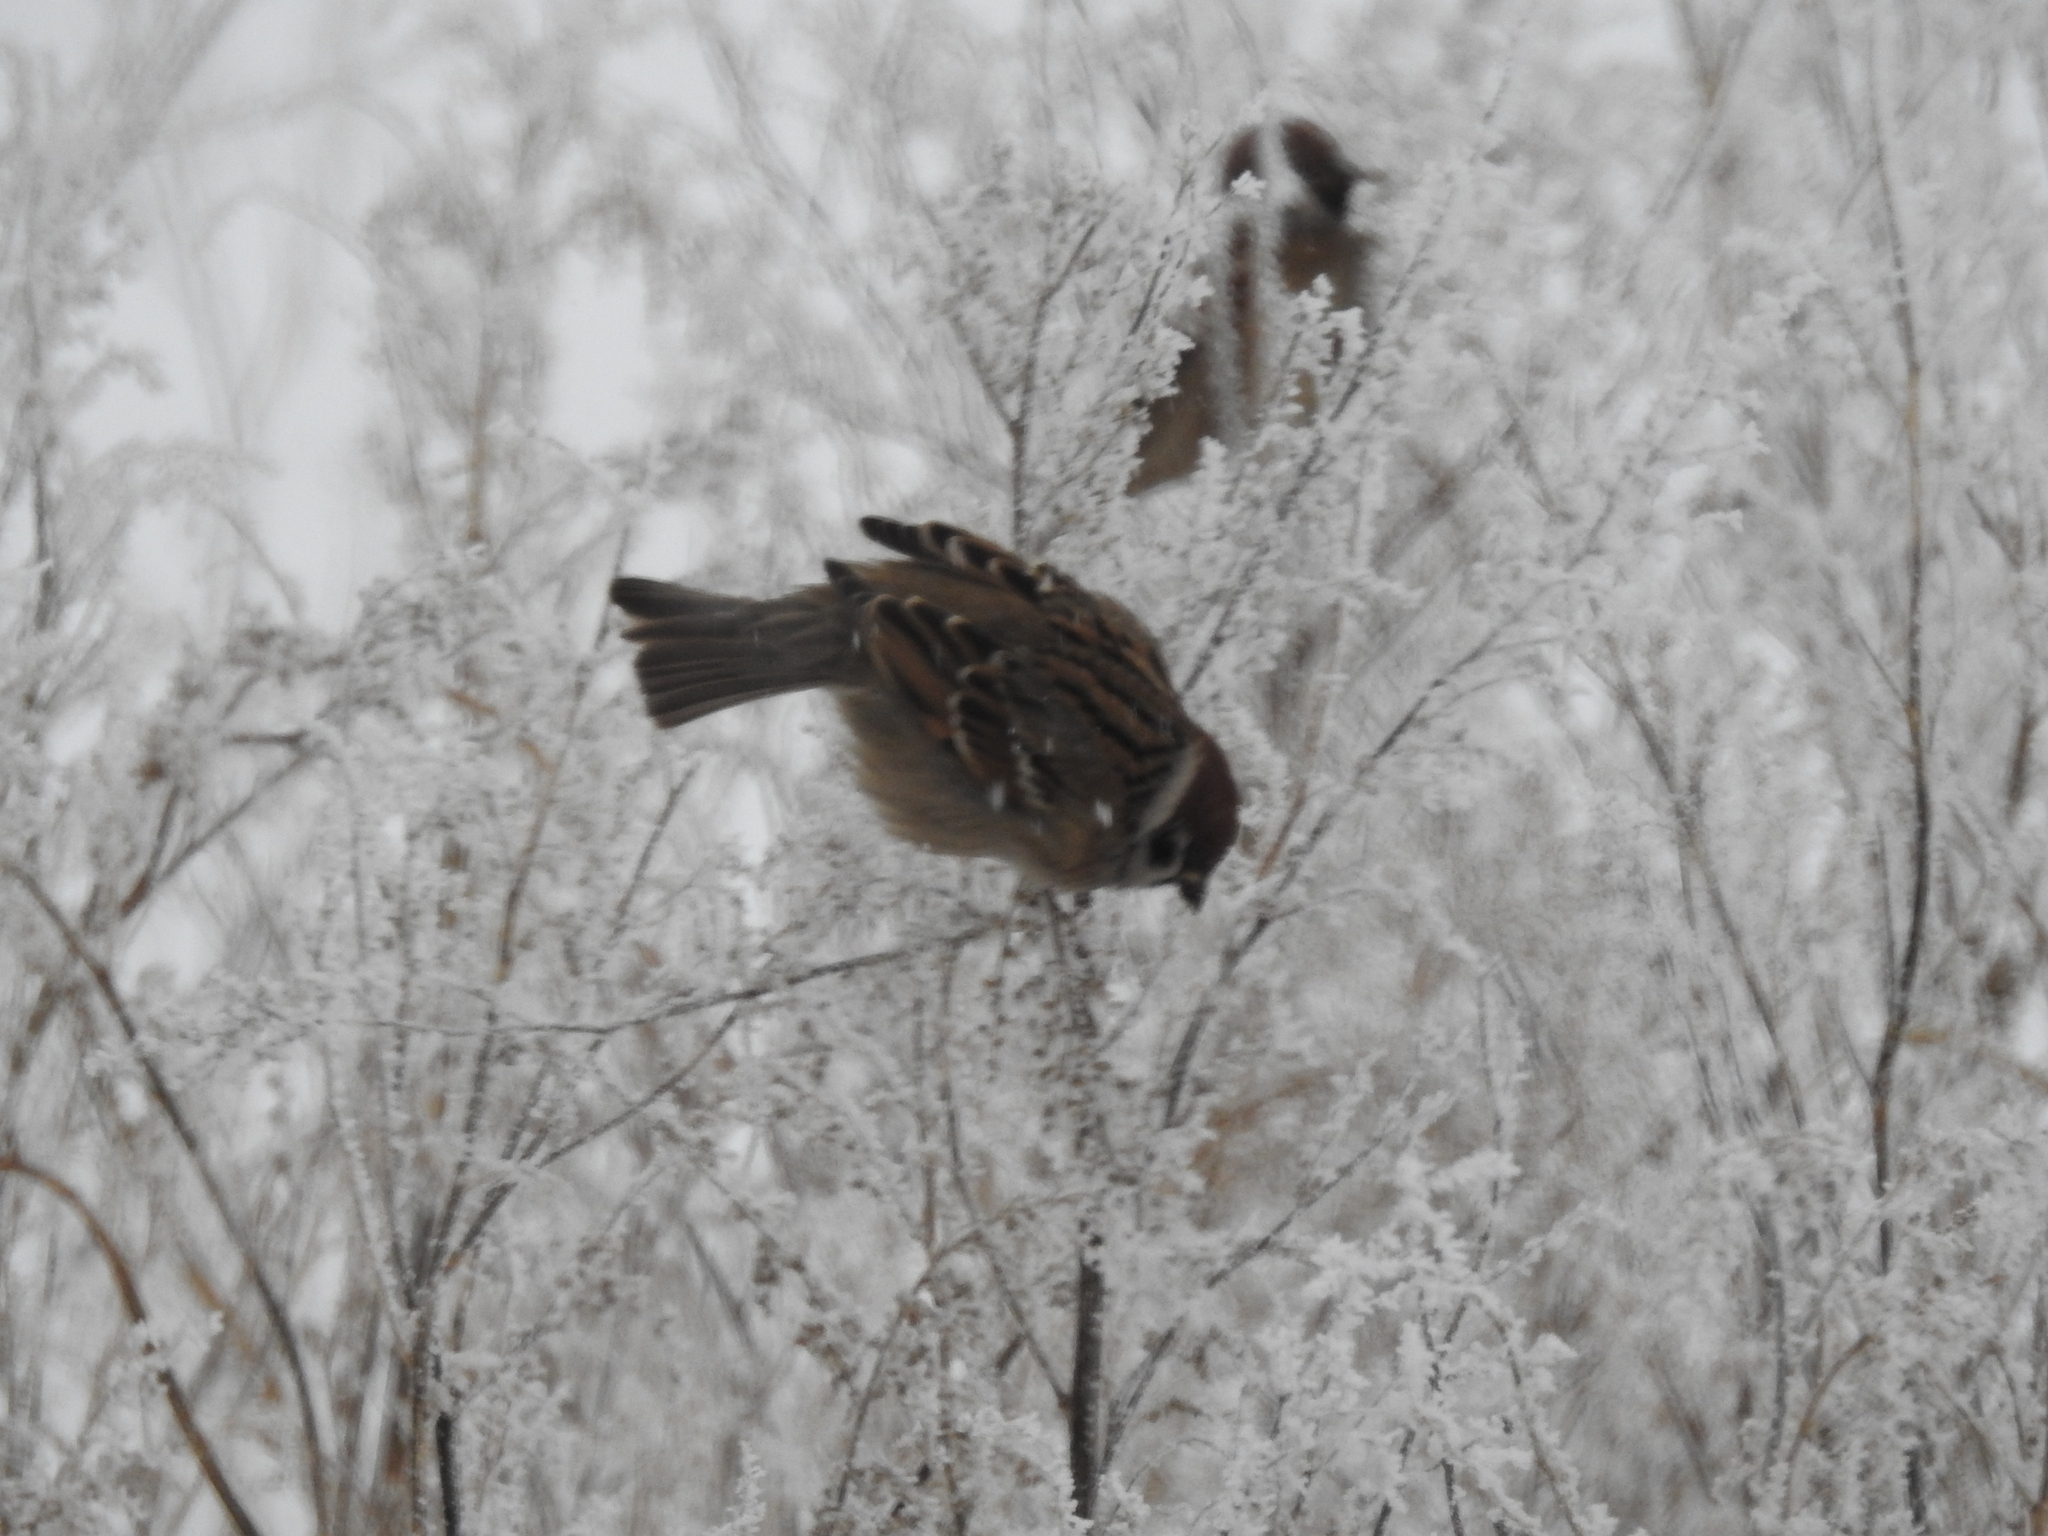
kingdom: Animalia
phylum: Chordata
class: Aves
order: Passeriformes
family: Passeridae
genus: Passer
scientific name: Passer montanus
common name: Eurasian tree sparrow
